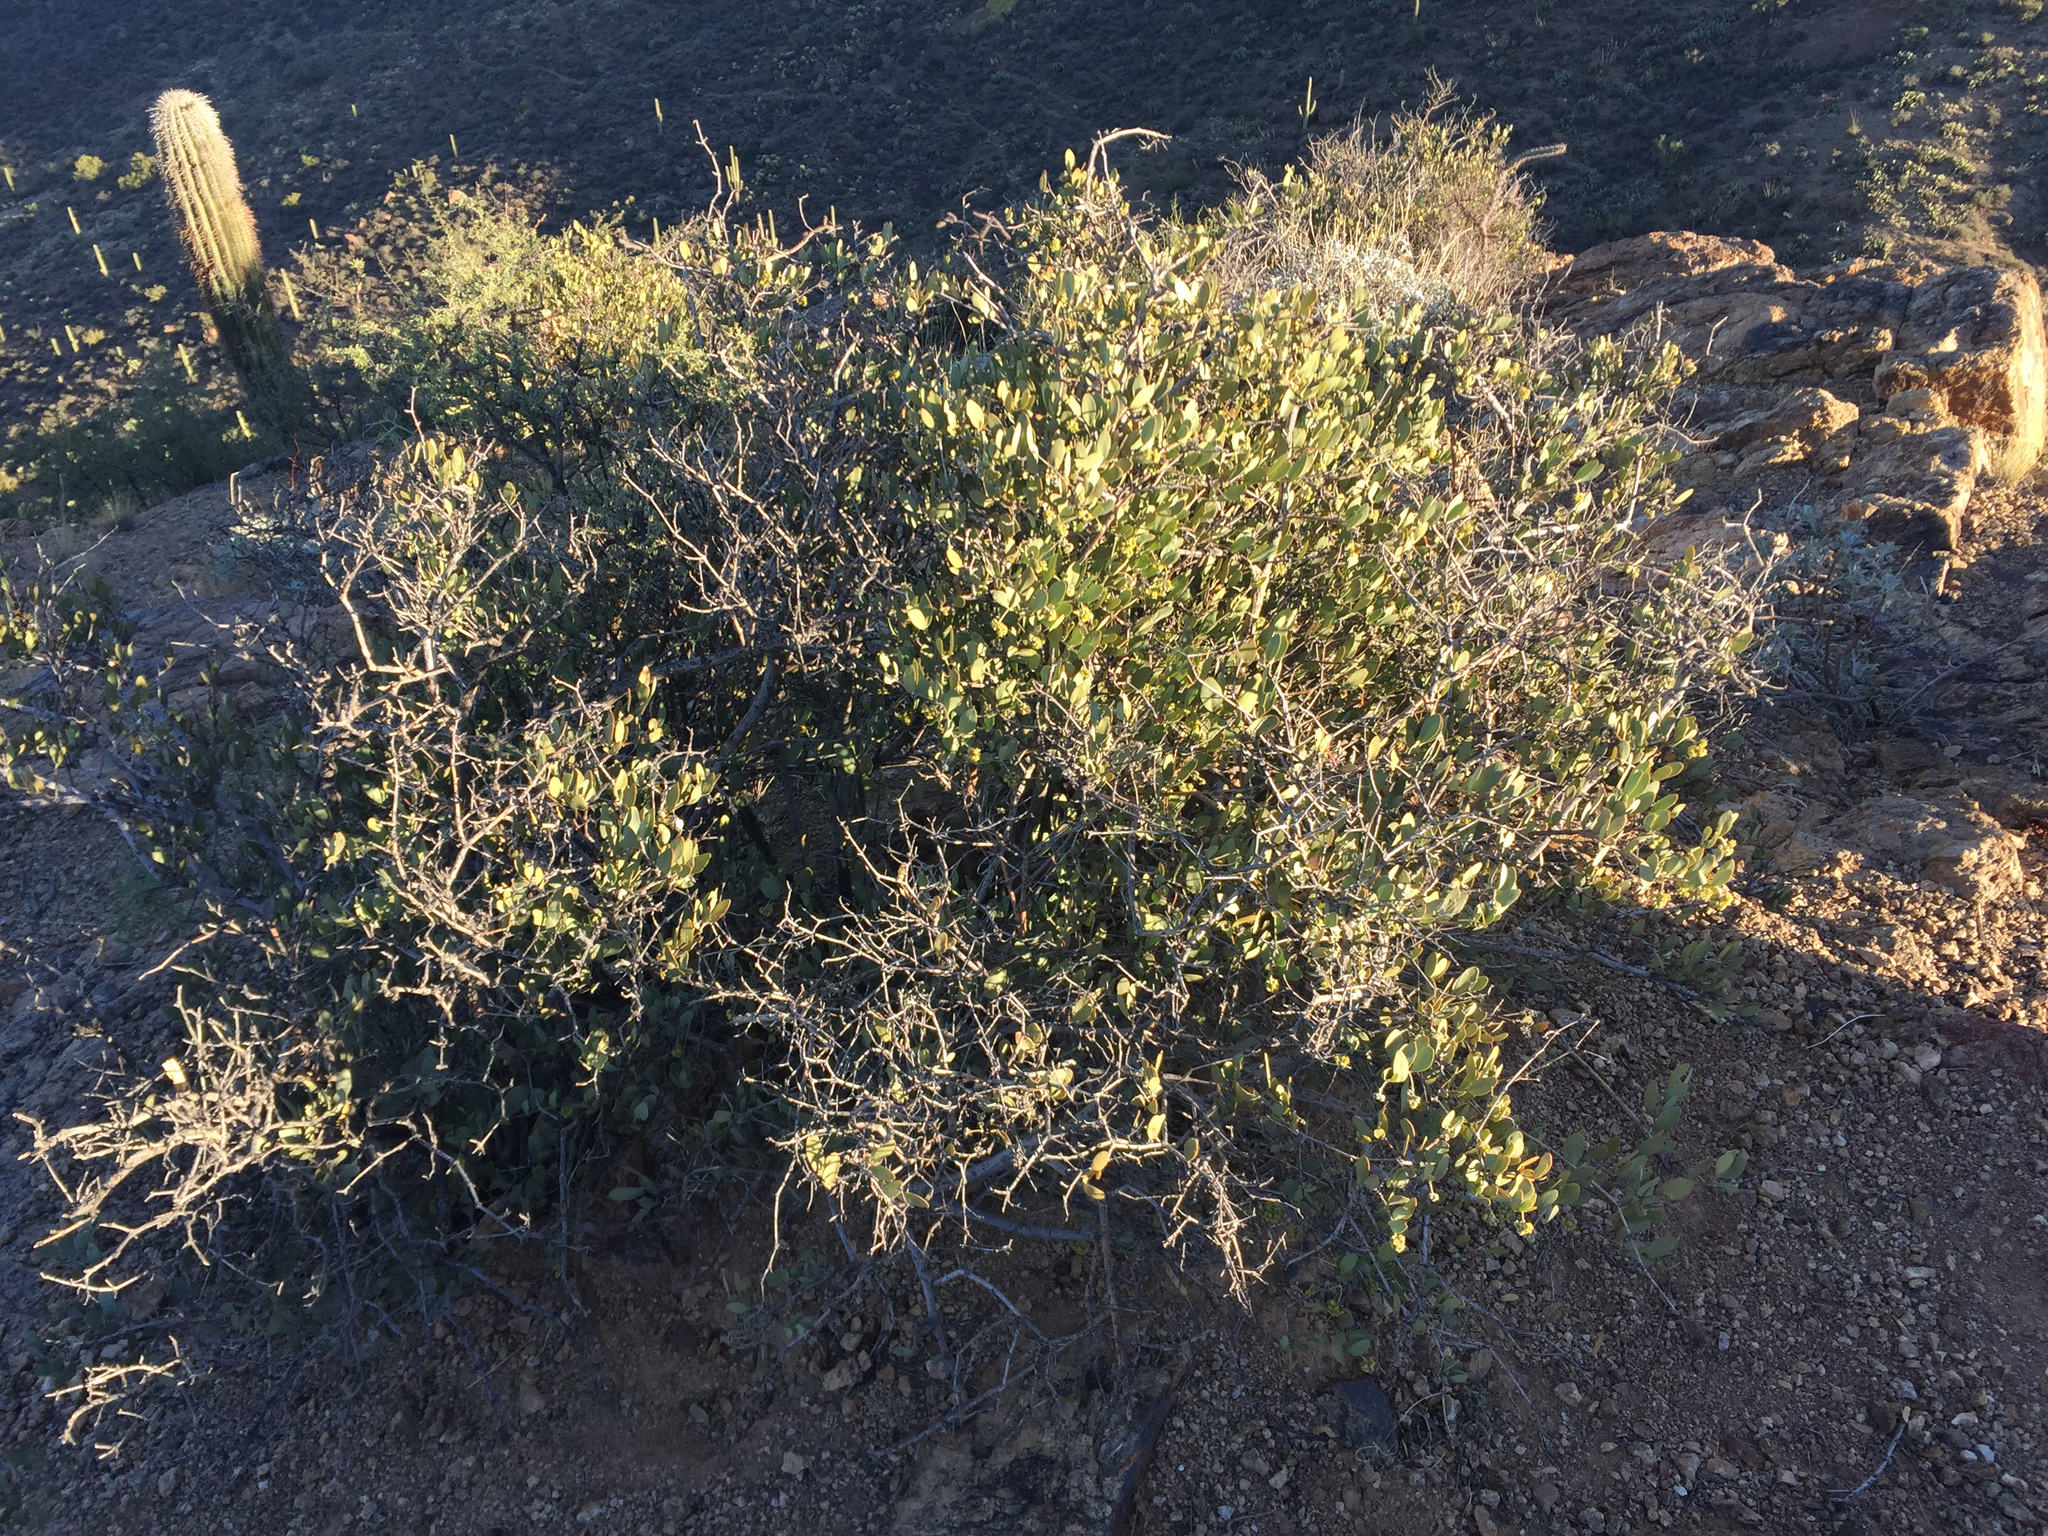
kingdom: Plantae
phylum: Tracheophyta
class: Magnoliopsida
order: Caryophyllales
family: Simmondsiaceae
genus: Simmondsia
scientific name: Simmondsia chinensis
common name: Jojoba
